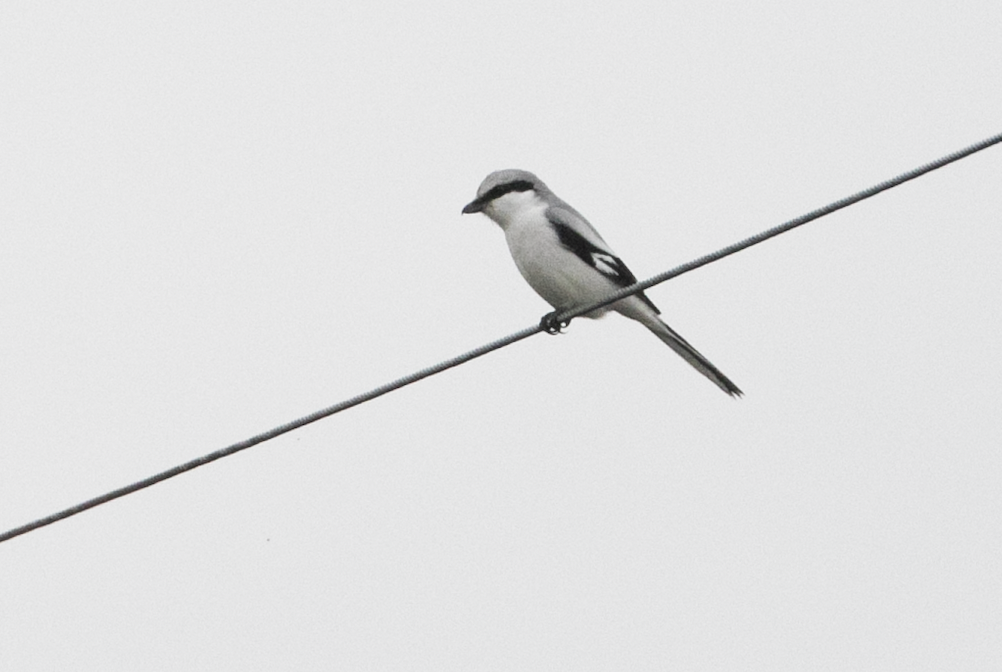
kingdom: Animalia
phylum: Chordata
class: Aves
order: Passeriformes
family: Laniidae
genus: Lanius
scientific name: Lanius excubitor
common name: Great grey shrike
